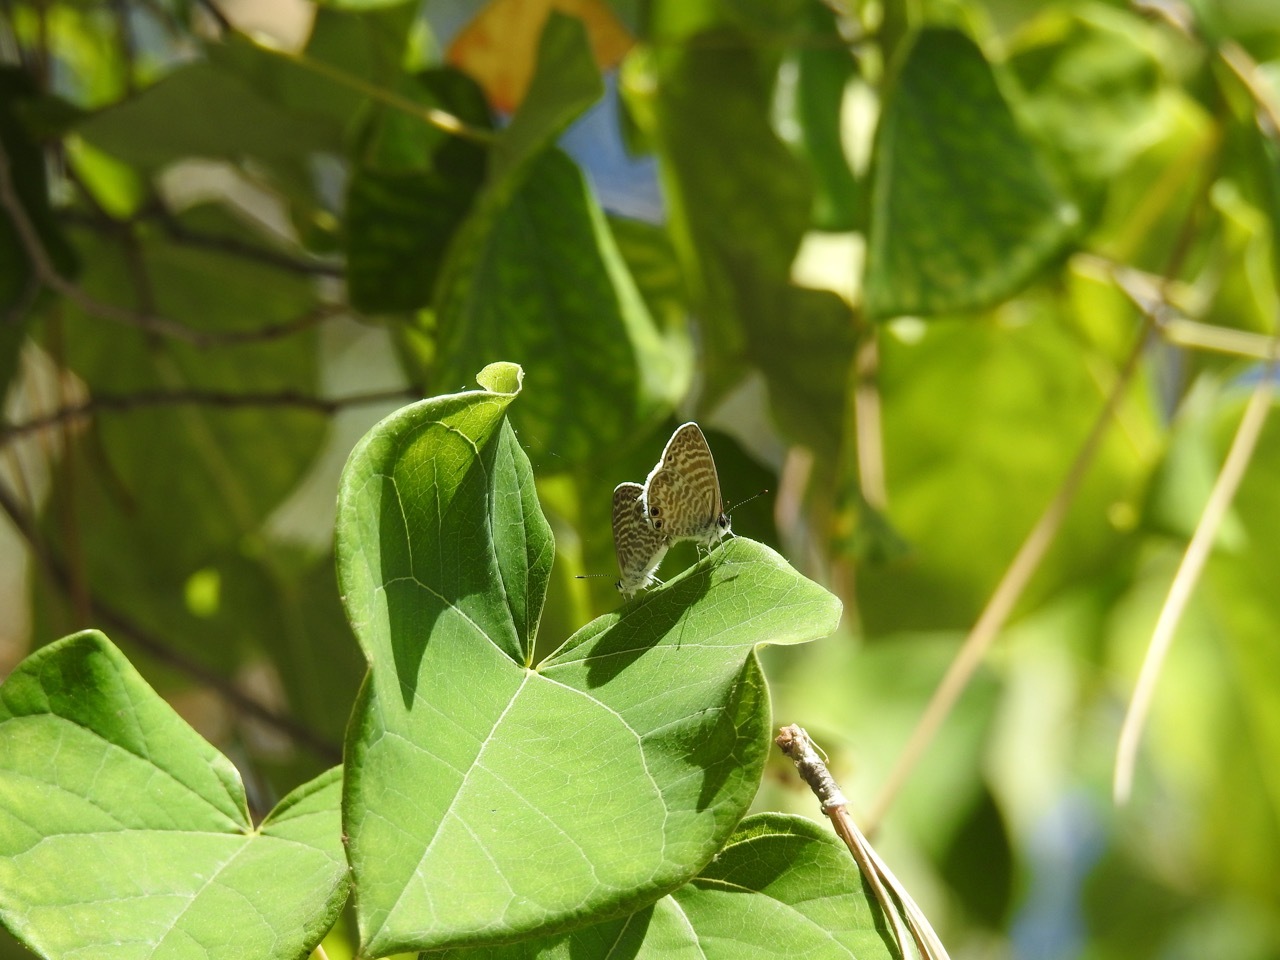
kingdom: Animalia
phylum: Arthropoda
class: Insecta
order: Lepidoptera
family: Lycaenidae
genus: Leptotes
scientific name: Leptotes marina
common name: Marine blue
